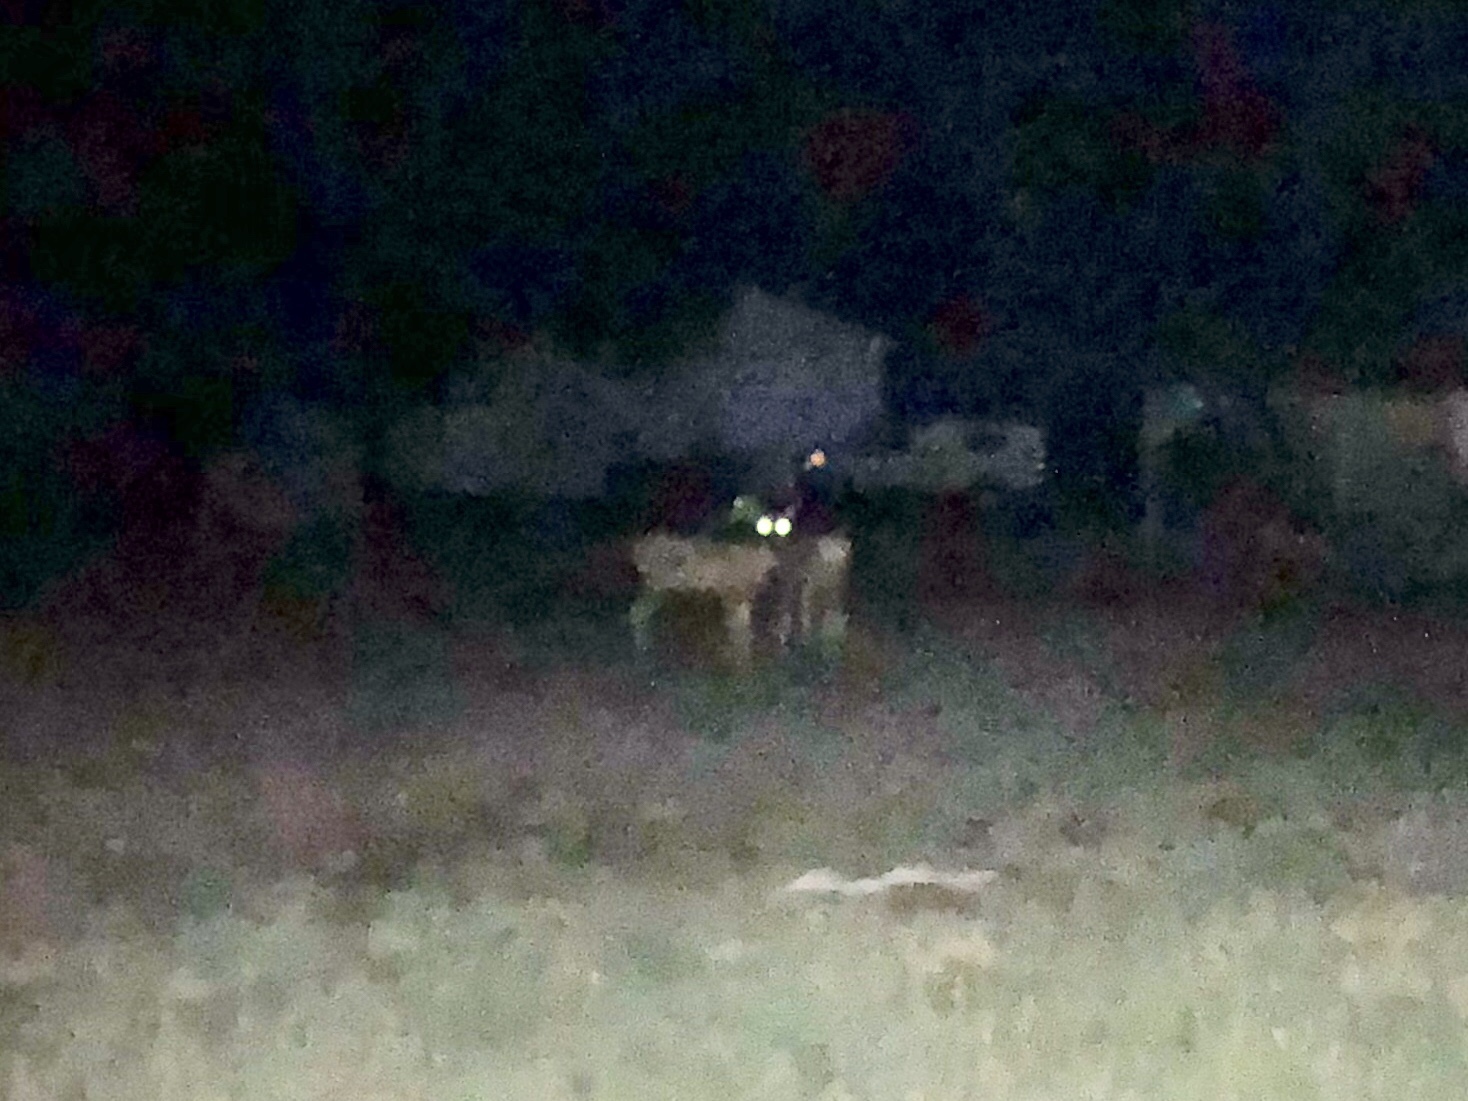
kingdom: Animalia
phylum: Chordata
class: Mammalia
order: Artiodactyla
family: Cervidae
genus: Odocoileus
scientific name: Odocoileus hemionus
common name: Mule deer
